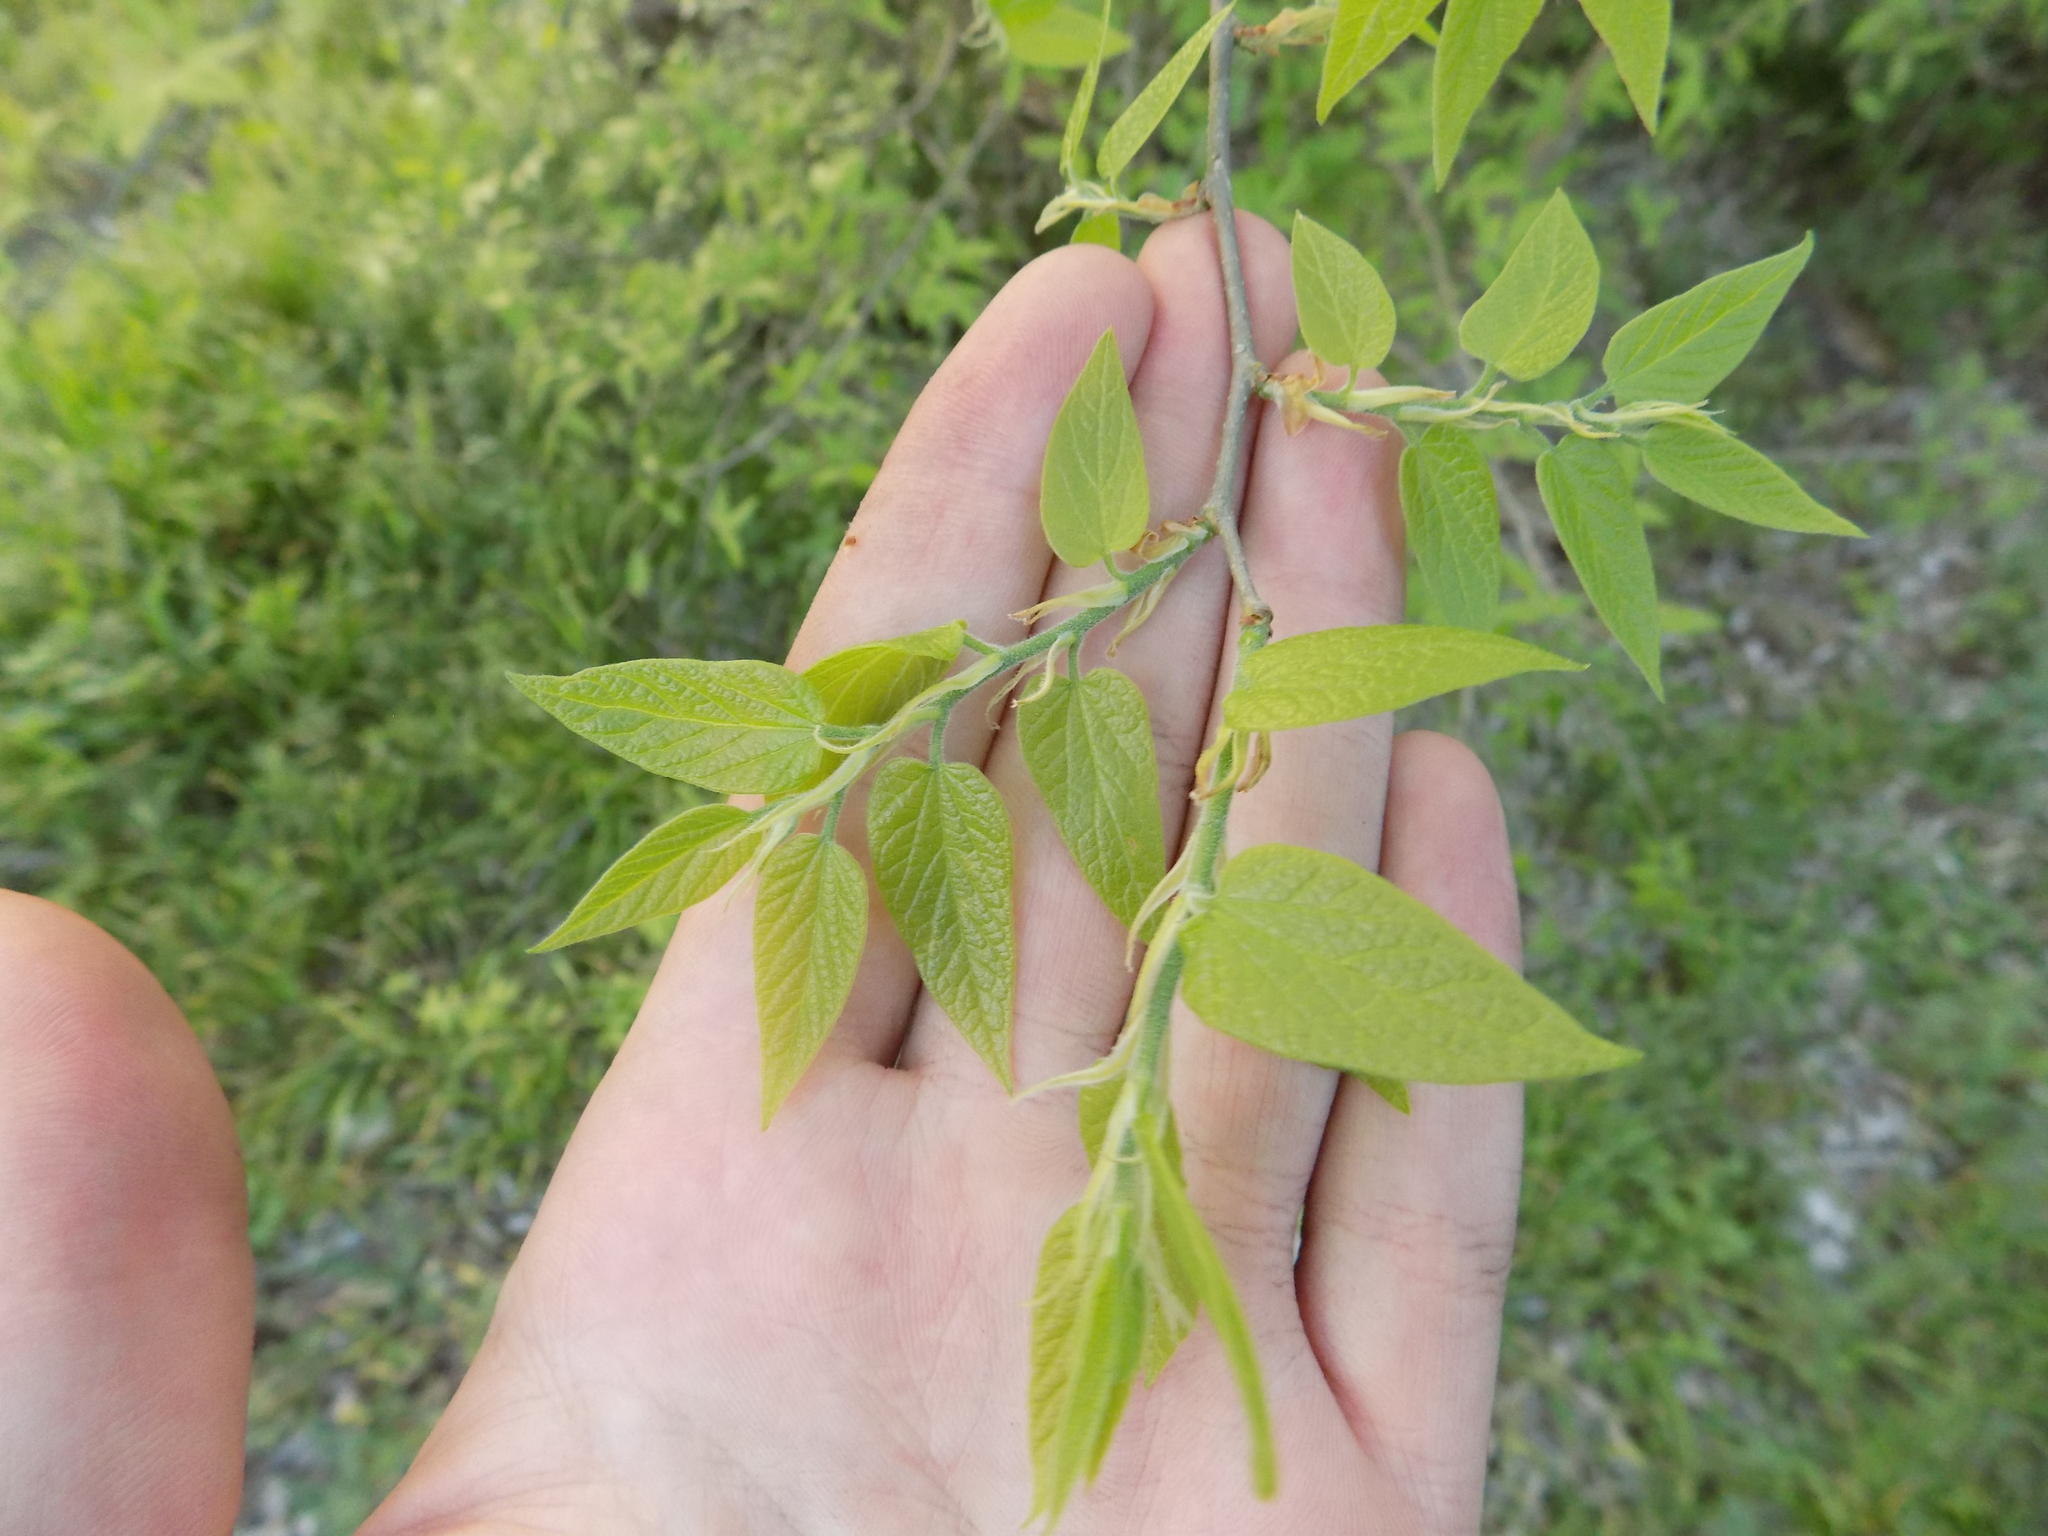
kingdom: Plantae
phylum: Tracheophyta
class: Magnoliopsida
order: Rosales
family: Cannabaceae
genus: Celtis
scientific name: Celtis laevigata
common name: Sugarberry
